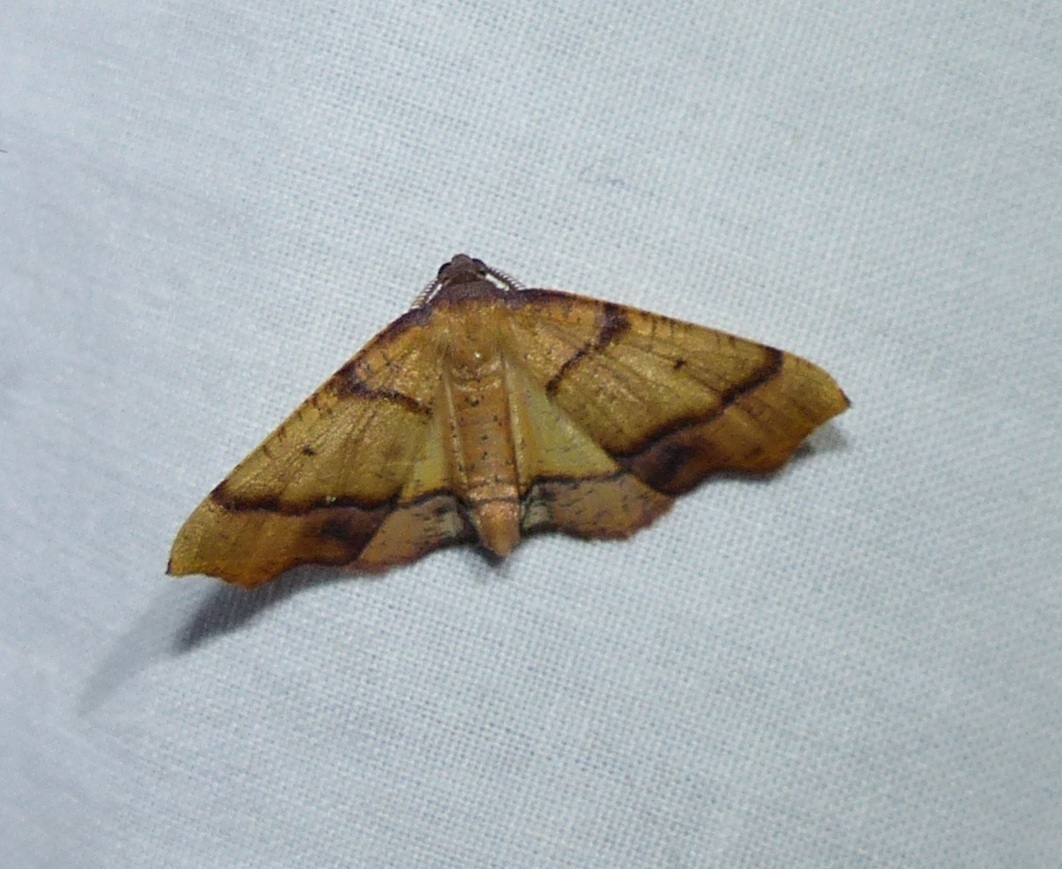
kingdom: Animalia
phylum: Arthropoda
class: Insecta
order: Lepidoptera
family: Geometridae
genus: Plagodis
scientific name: Plagodis phlogosaria
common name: Straight-lined plagodis
